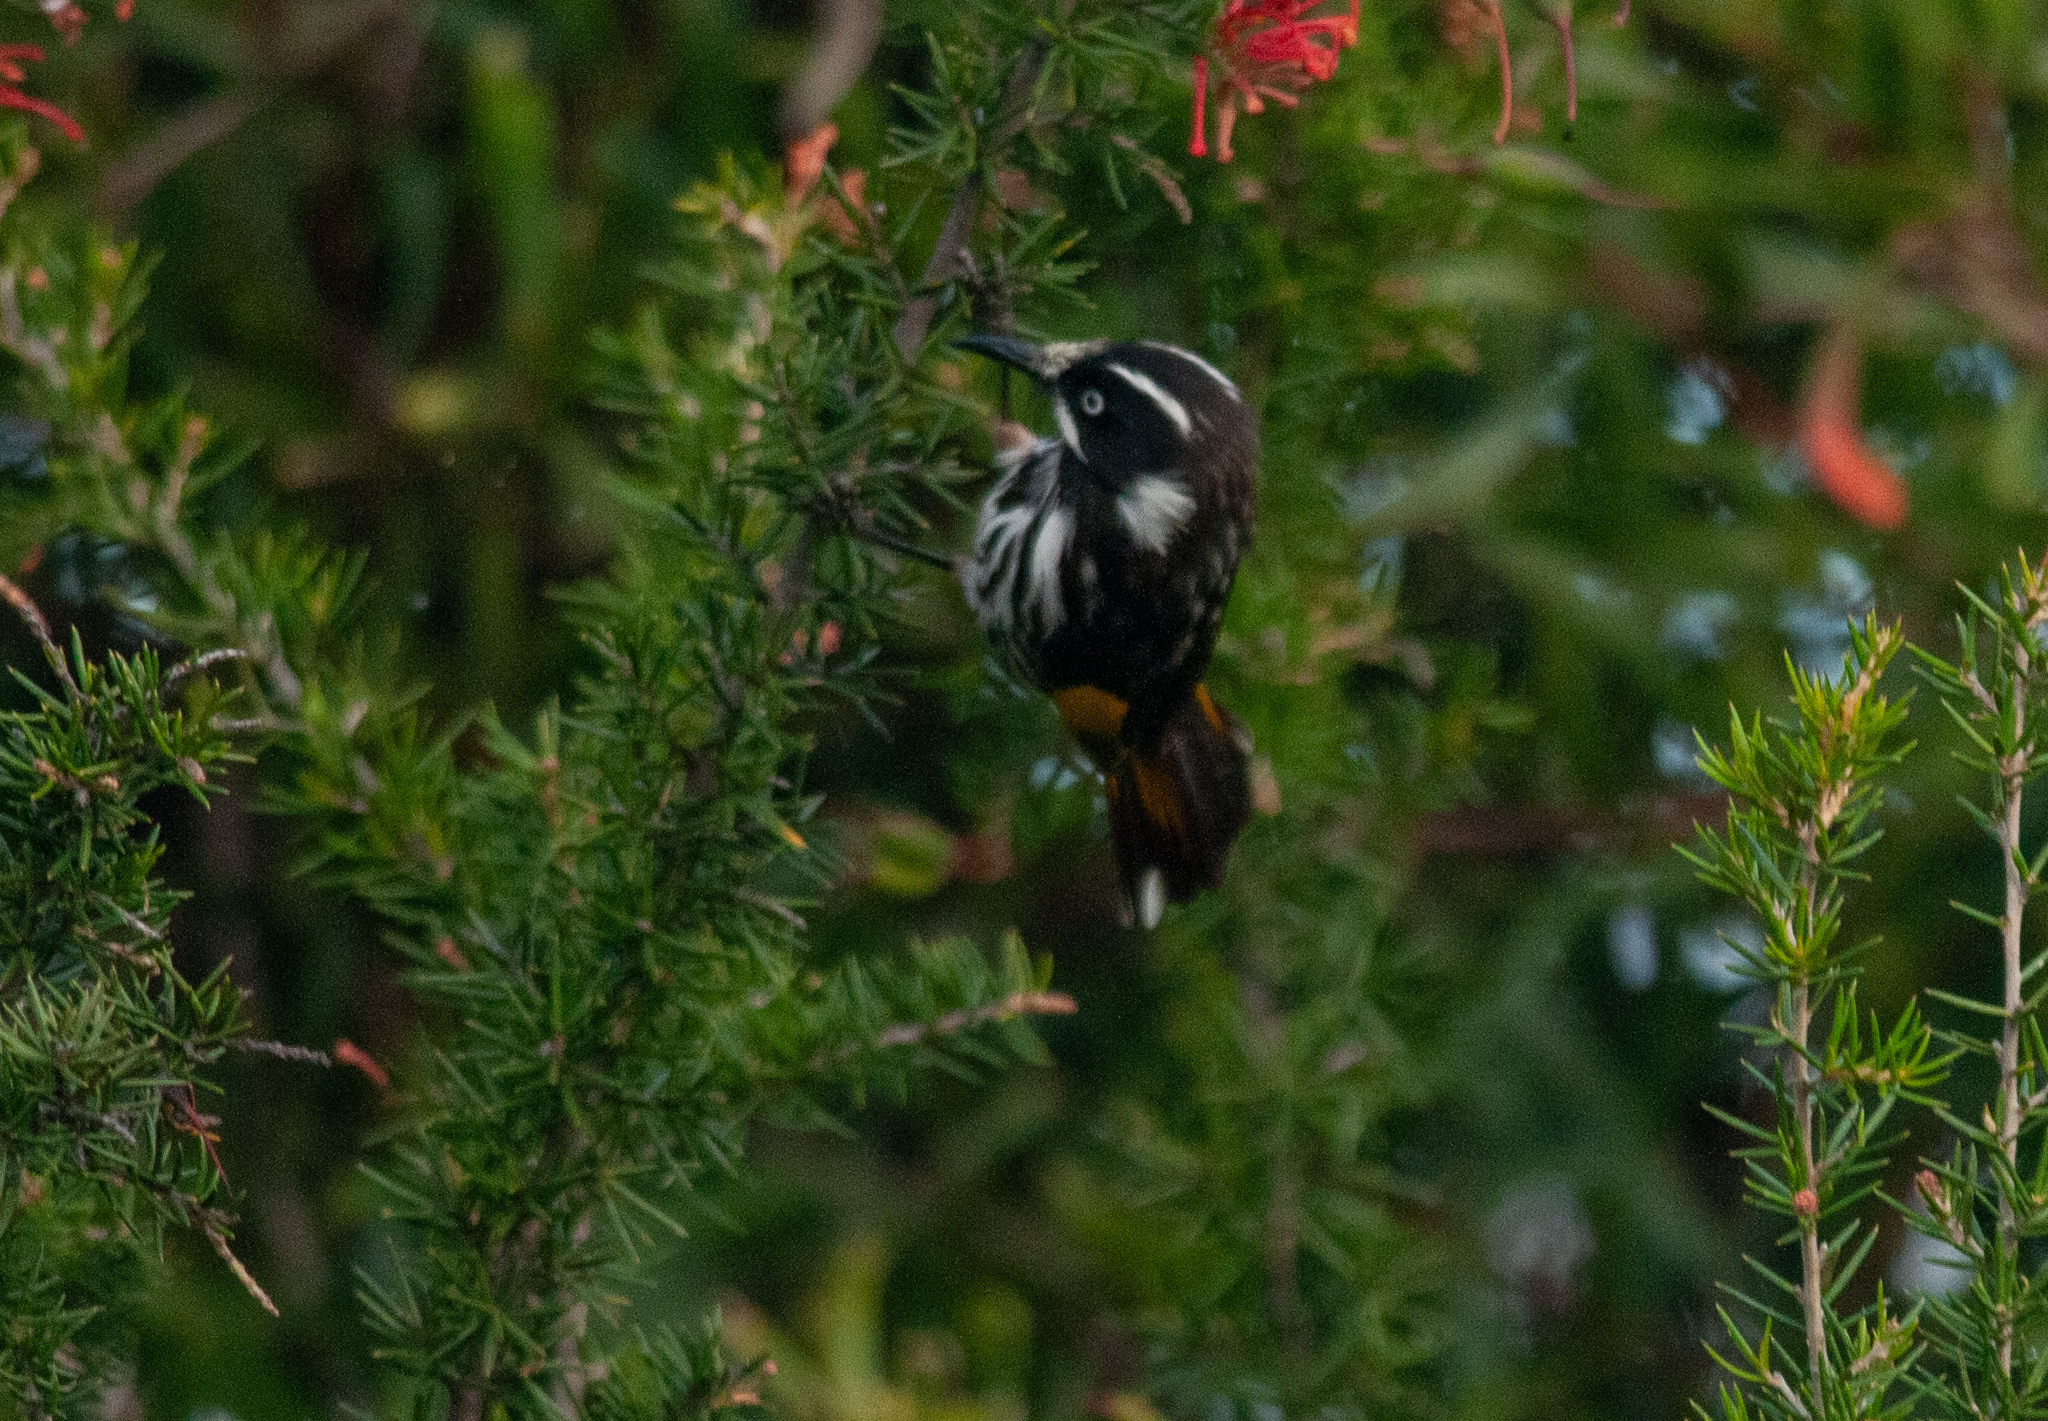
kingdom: Animalia
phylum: Chordata
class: Aves
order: Passeriformes
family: Meliphagidae
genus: Phylidonyris
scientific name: Phylidonyris novaehollandiae
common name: New holland honeyeater
